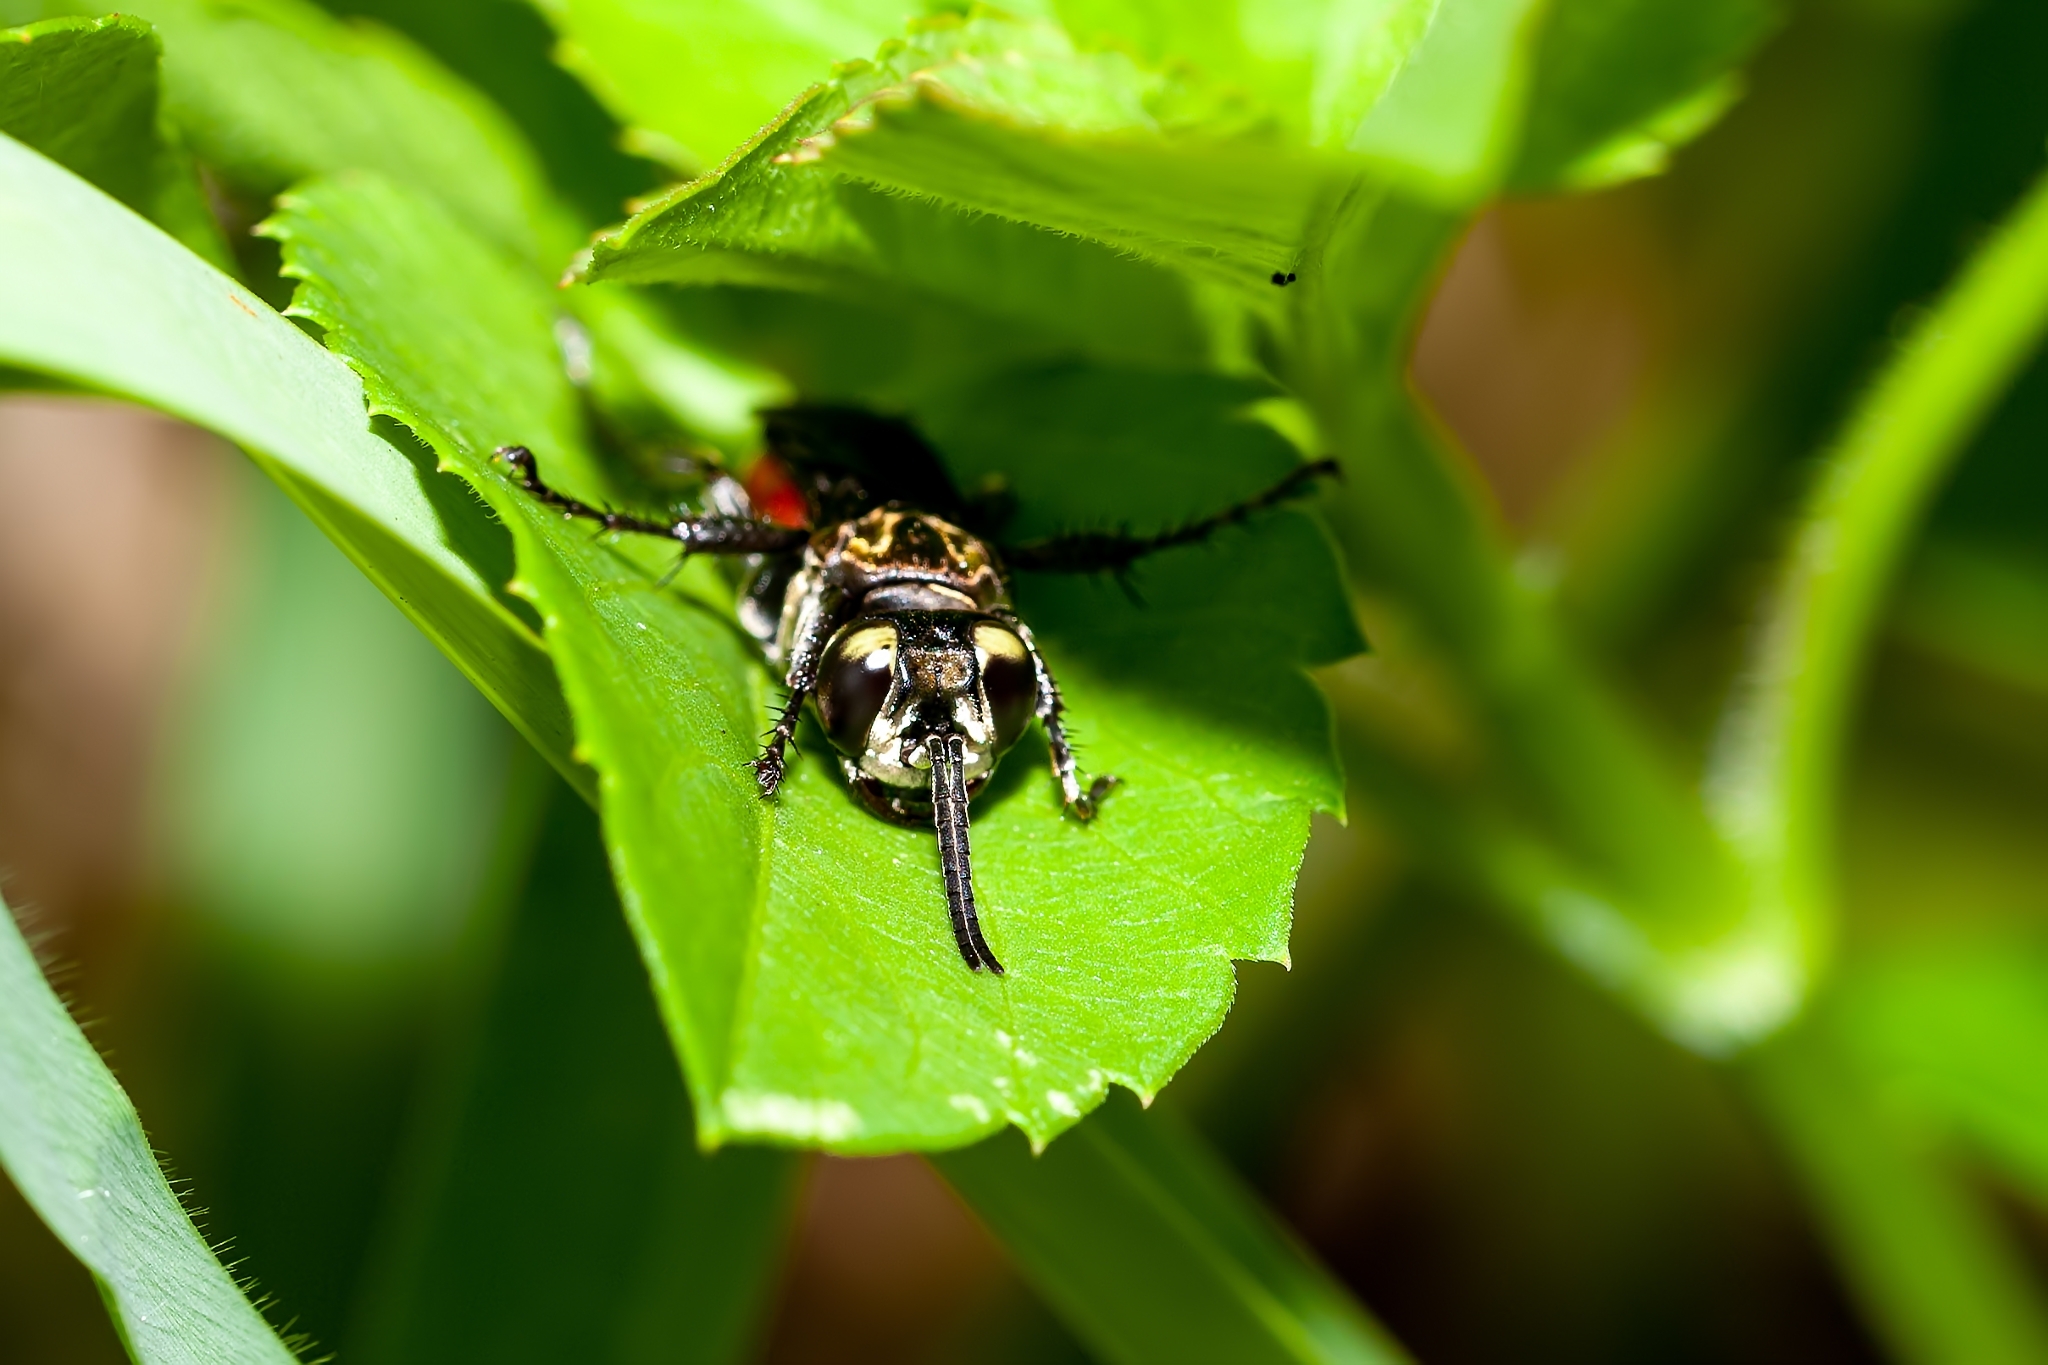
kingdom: Animalia
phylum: Arthropoda
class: Insecta
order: Hymenoptera
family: Crabronidae
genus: Larra
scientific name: Larra bicolor
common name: Wasp
